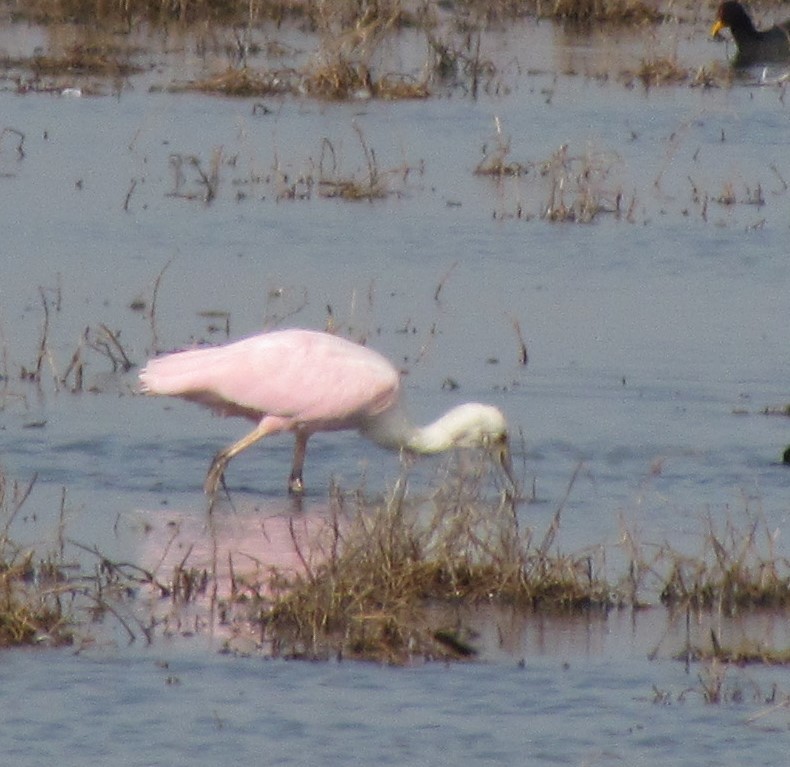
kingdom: Animalia
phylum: Chordata
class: Aves
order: Pelecaniformes
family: Threskiornithidae
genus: Platalea
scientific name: Platalea ajaja
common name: Roseate spoonbill
